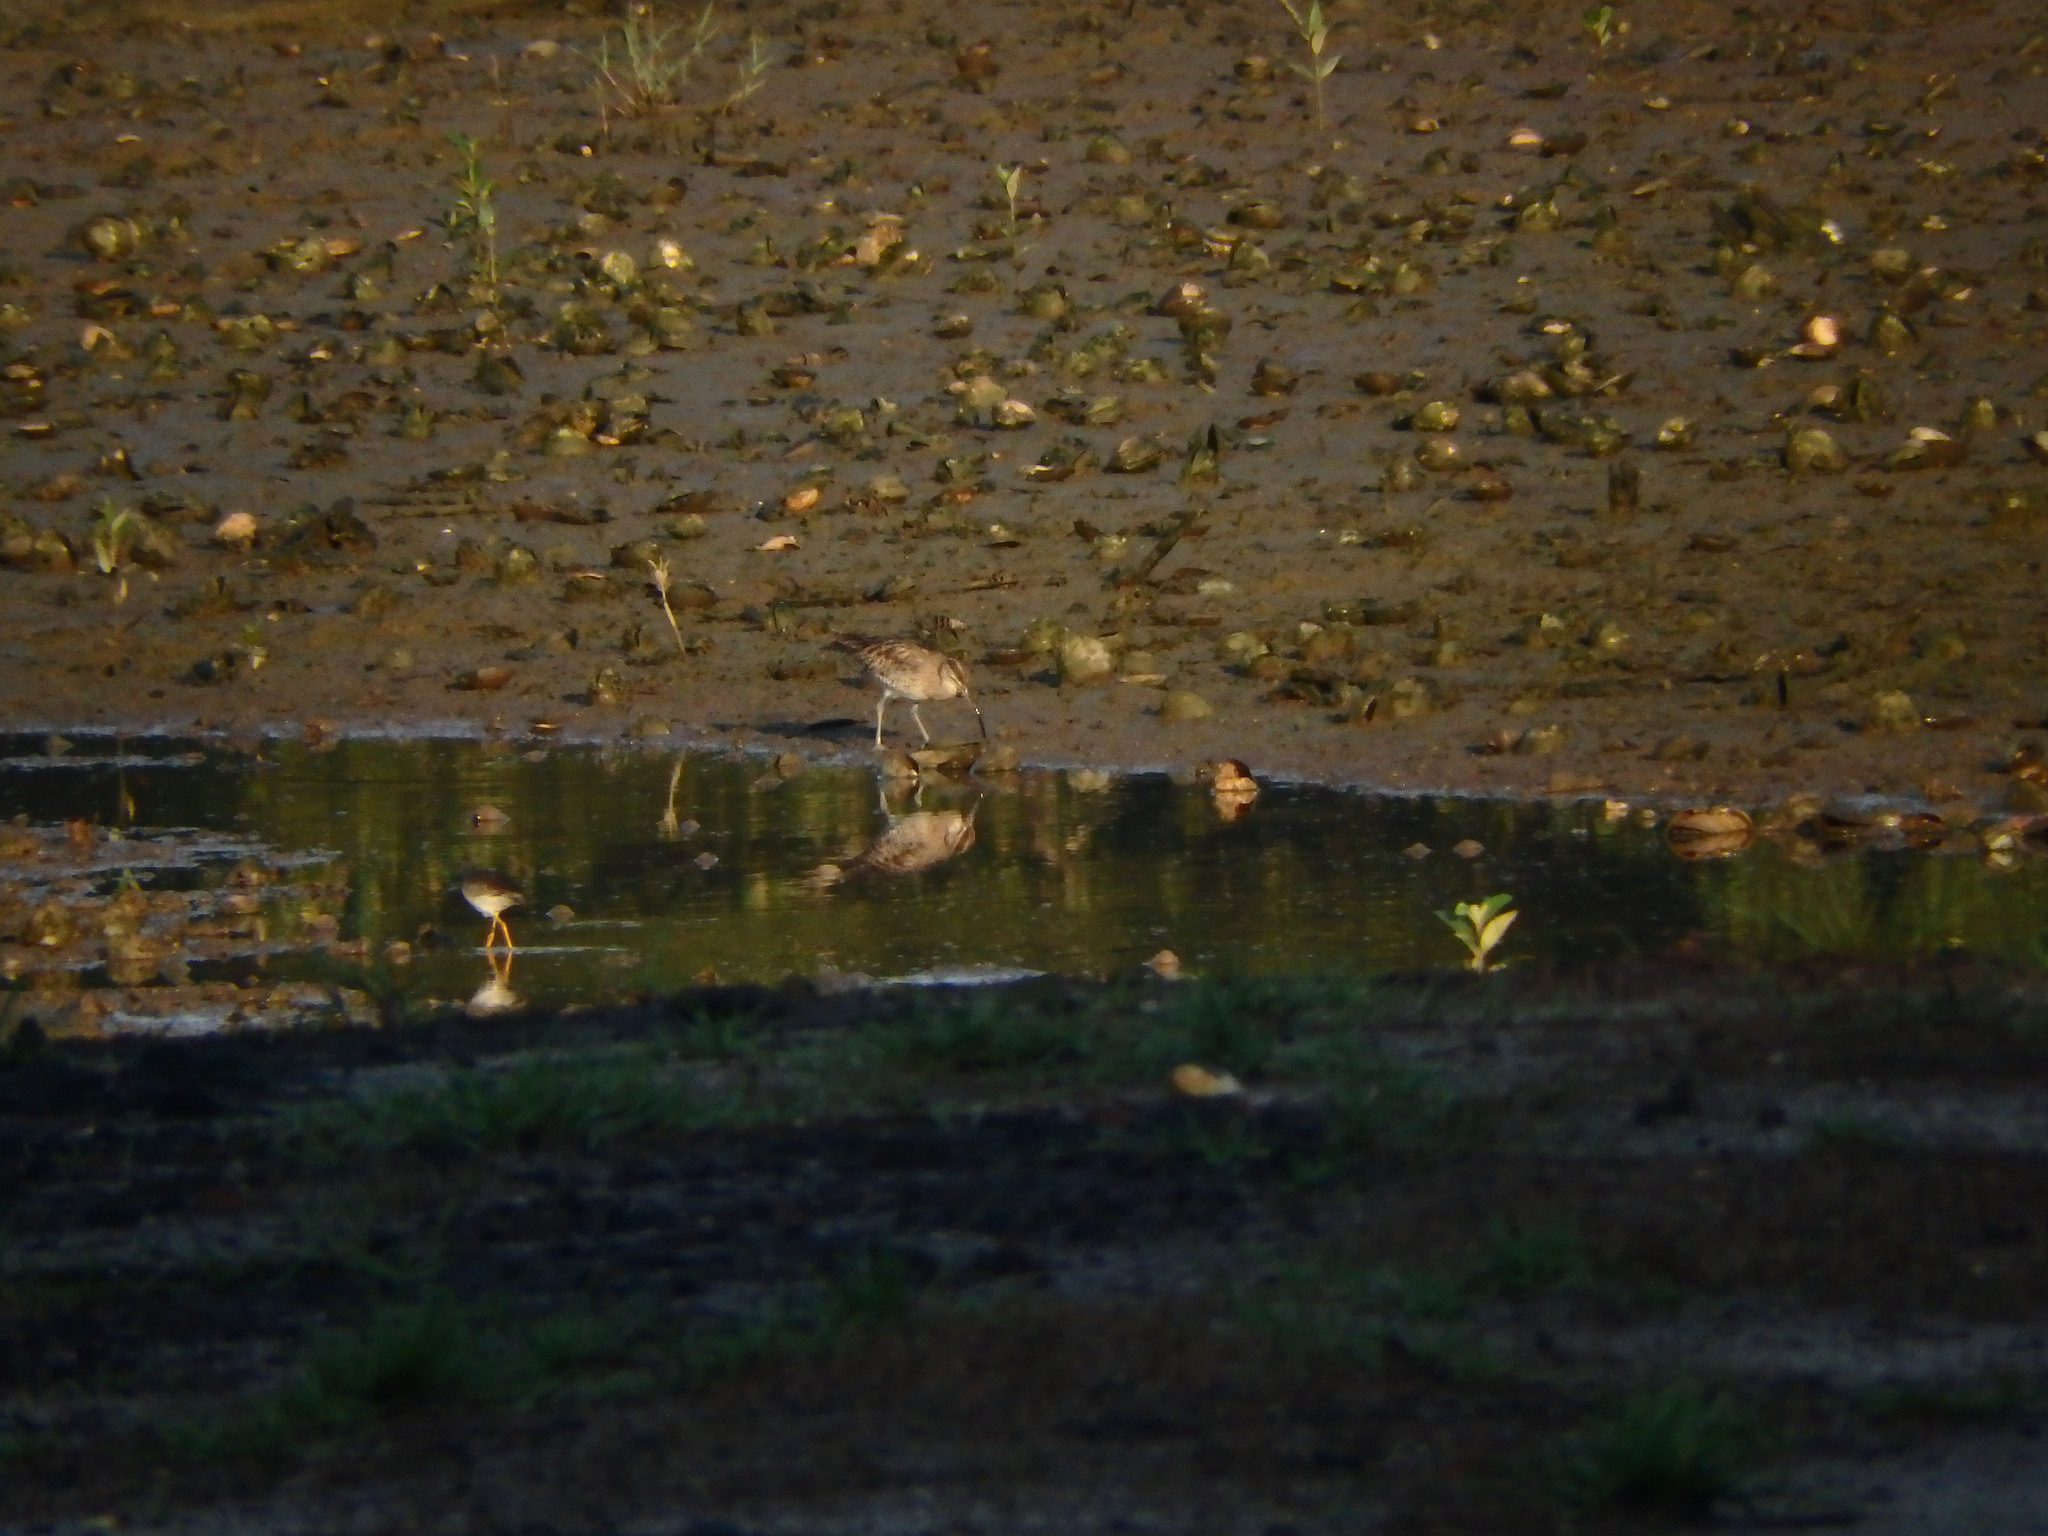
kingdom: Animalia
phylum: Chordata
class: Aves
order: Charadriiformes
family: Scolopacidae
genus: Numenius
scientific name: Numenius phaeopus
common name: Whimbrel
